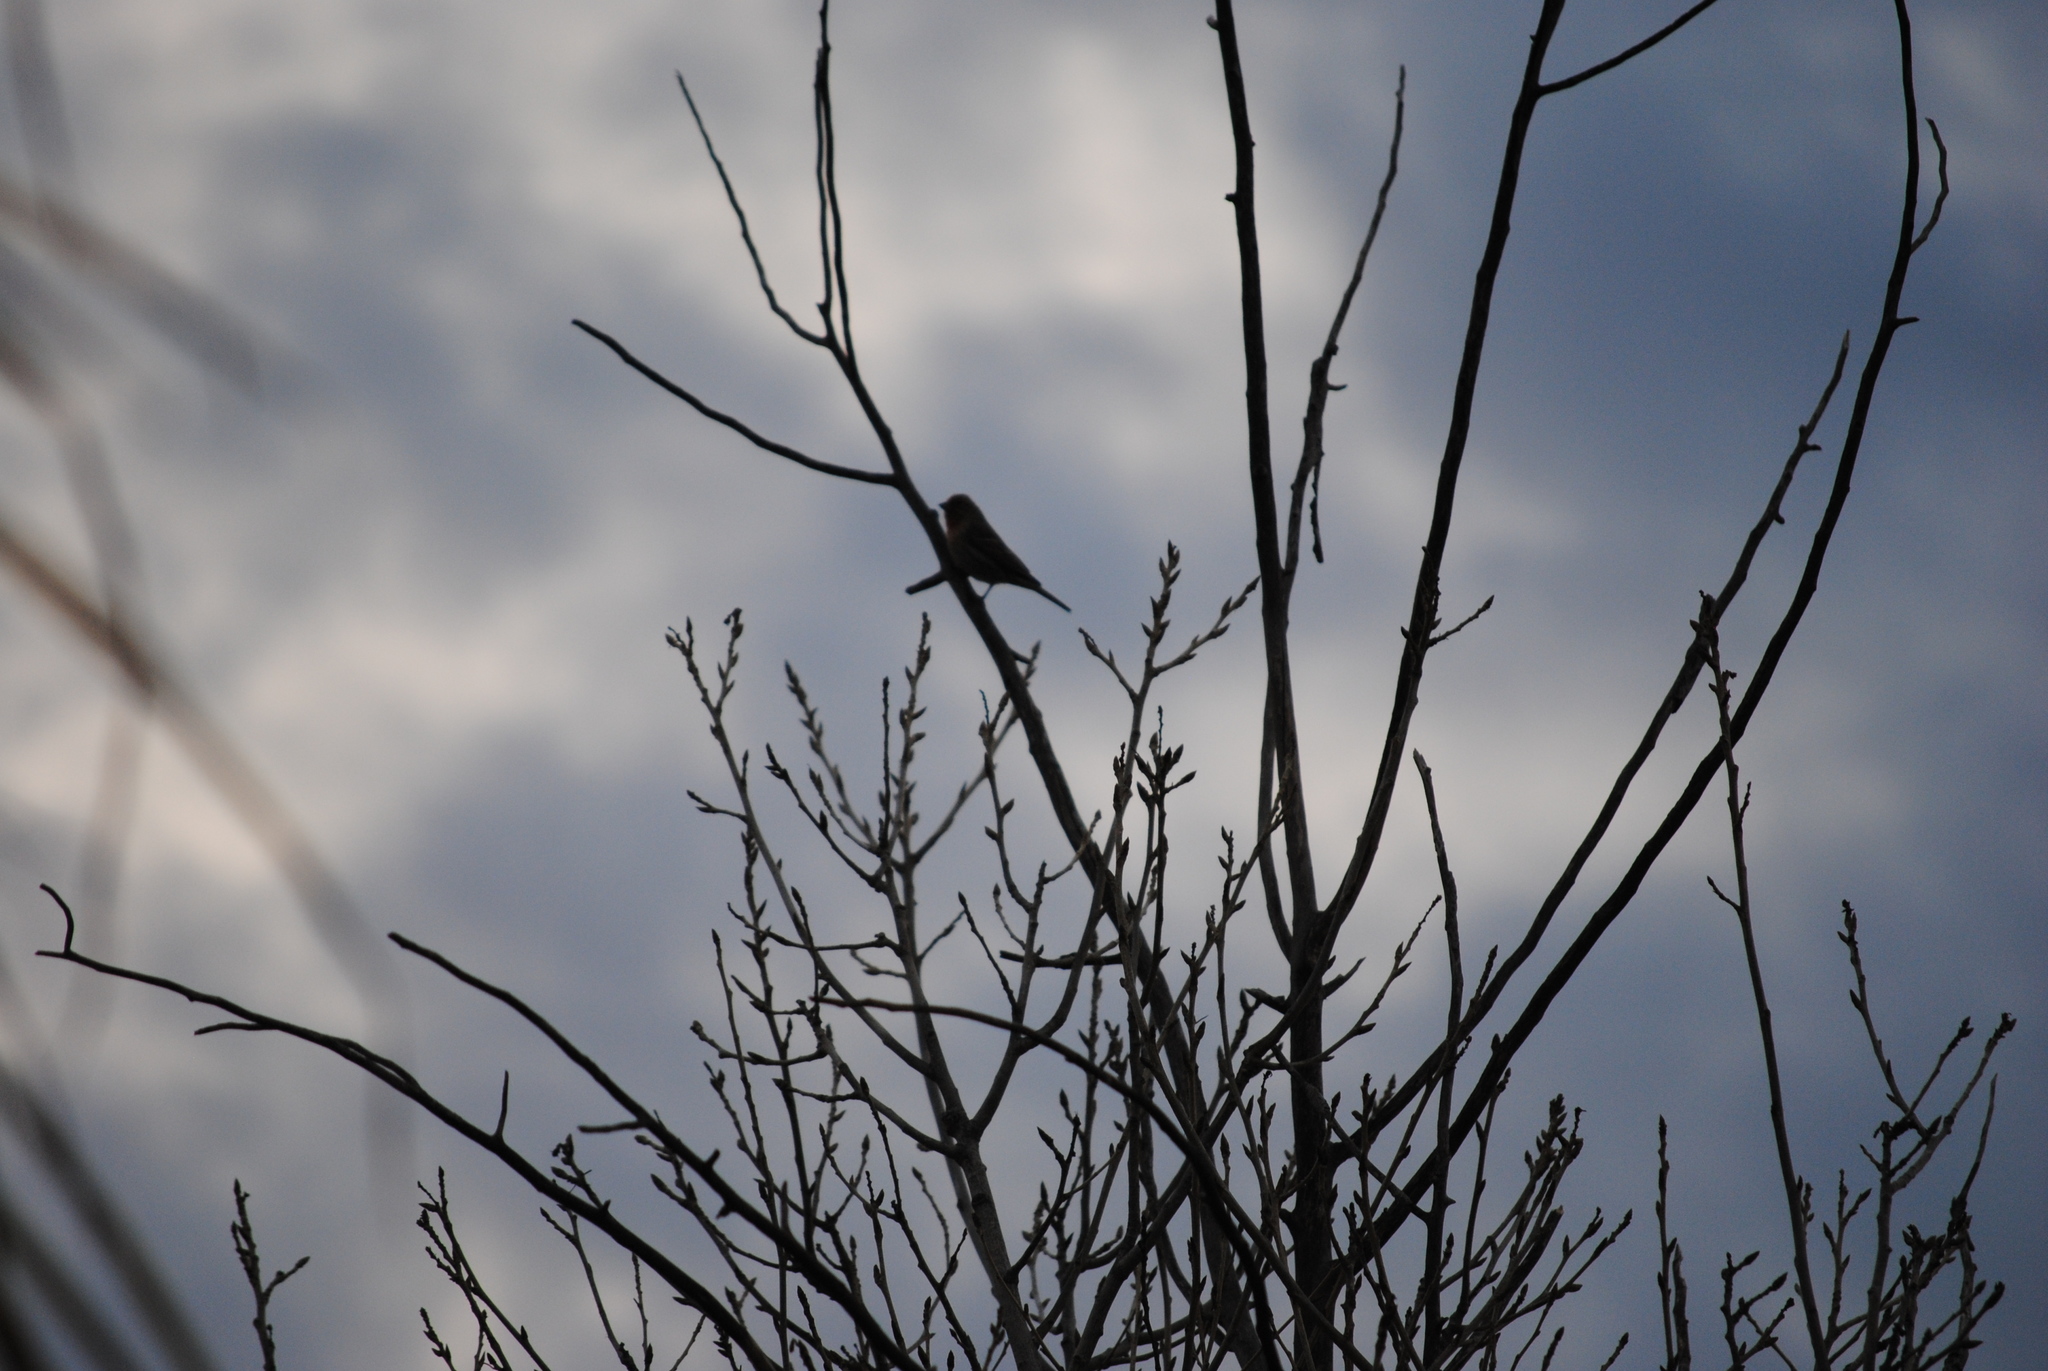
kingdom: Animalia
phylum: Chordata
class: Aves
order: Passeriformes
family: Fringillidae
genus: Haemorhous
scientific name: Haemorhous mexicanus
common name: House finch
